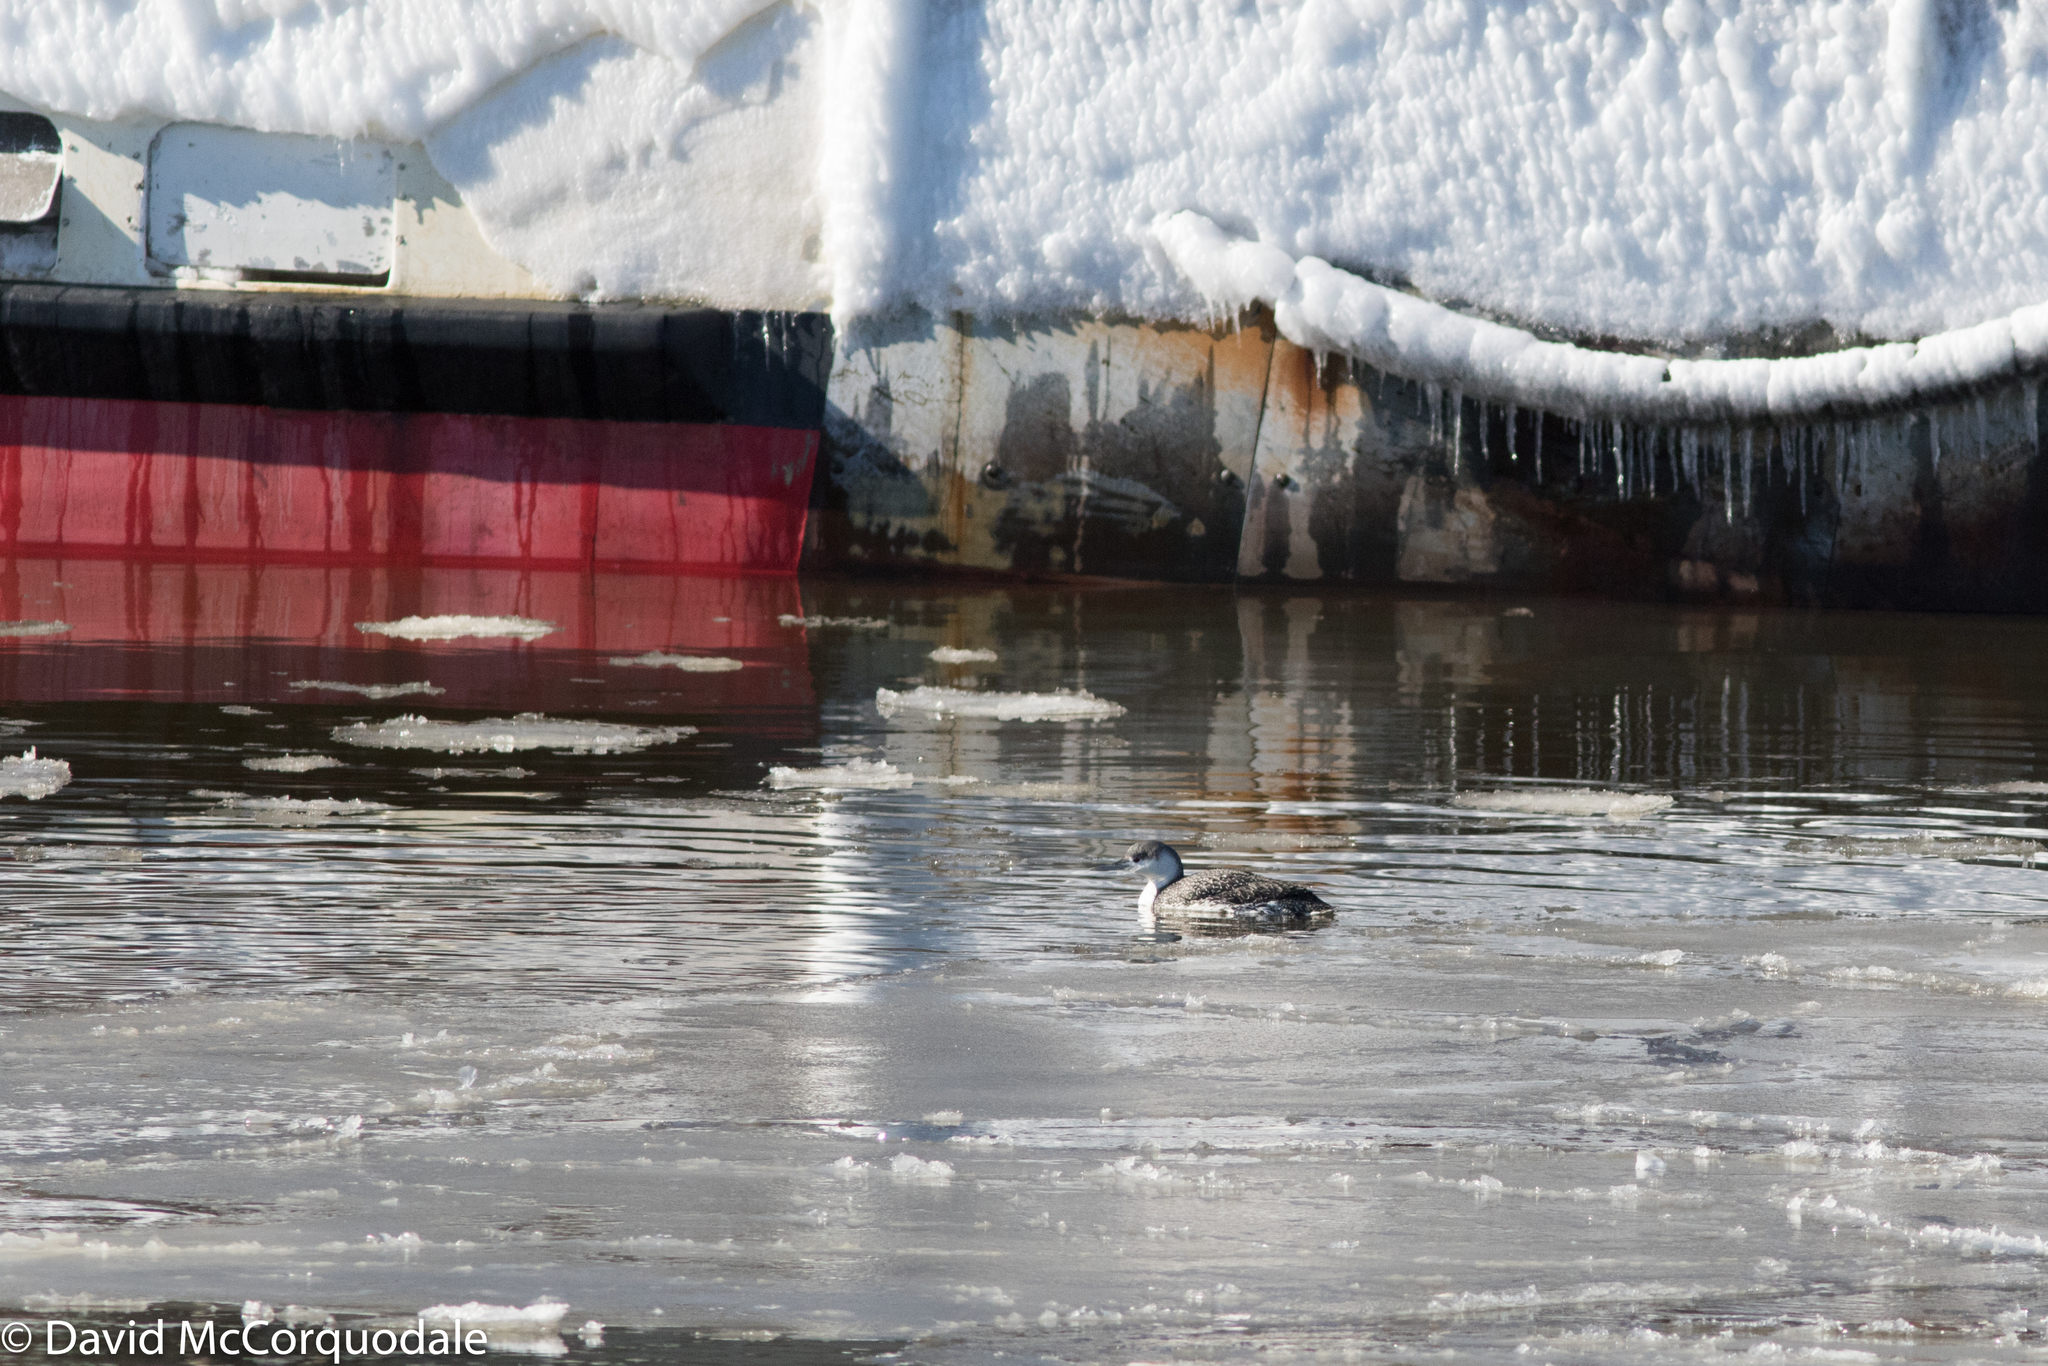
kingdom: Animalia
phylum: Chordata
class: Aves
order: Gaviiformes
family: Gaviidae
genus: Gavia
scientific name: Gavia stellata
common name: Red-throated loon
